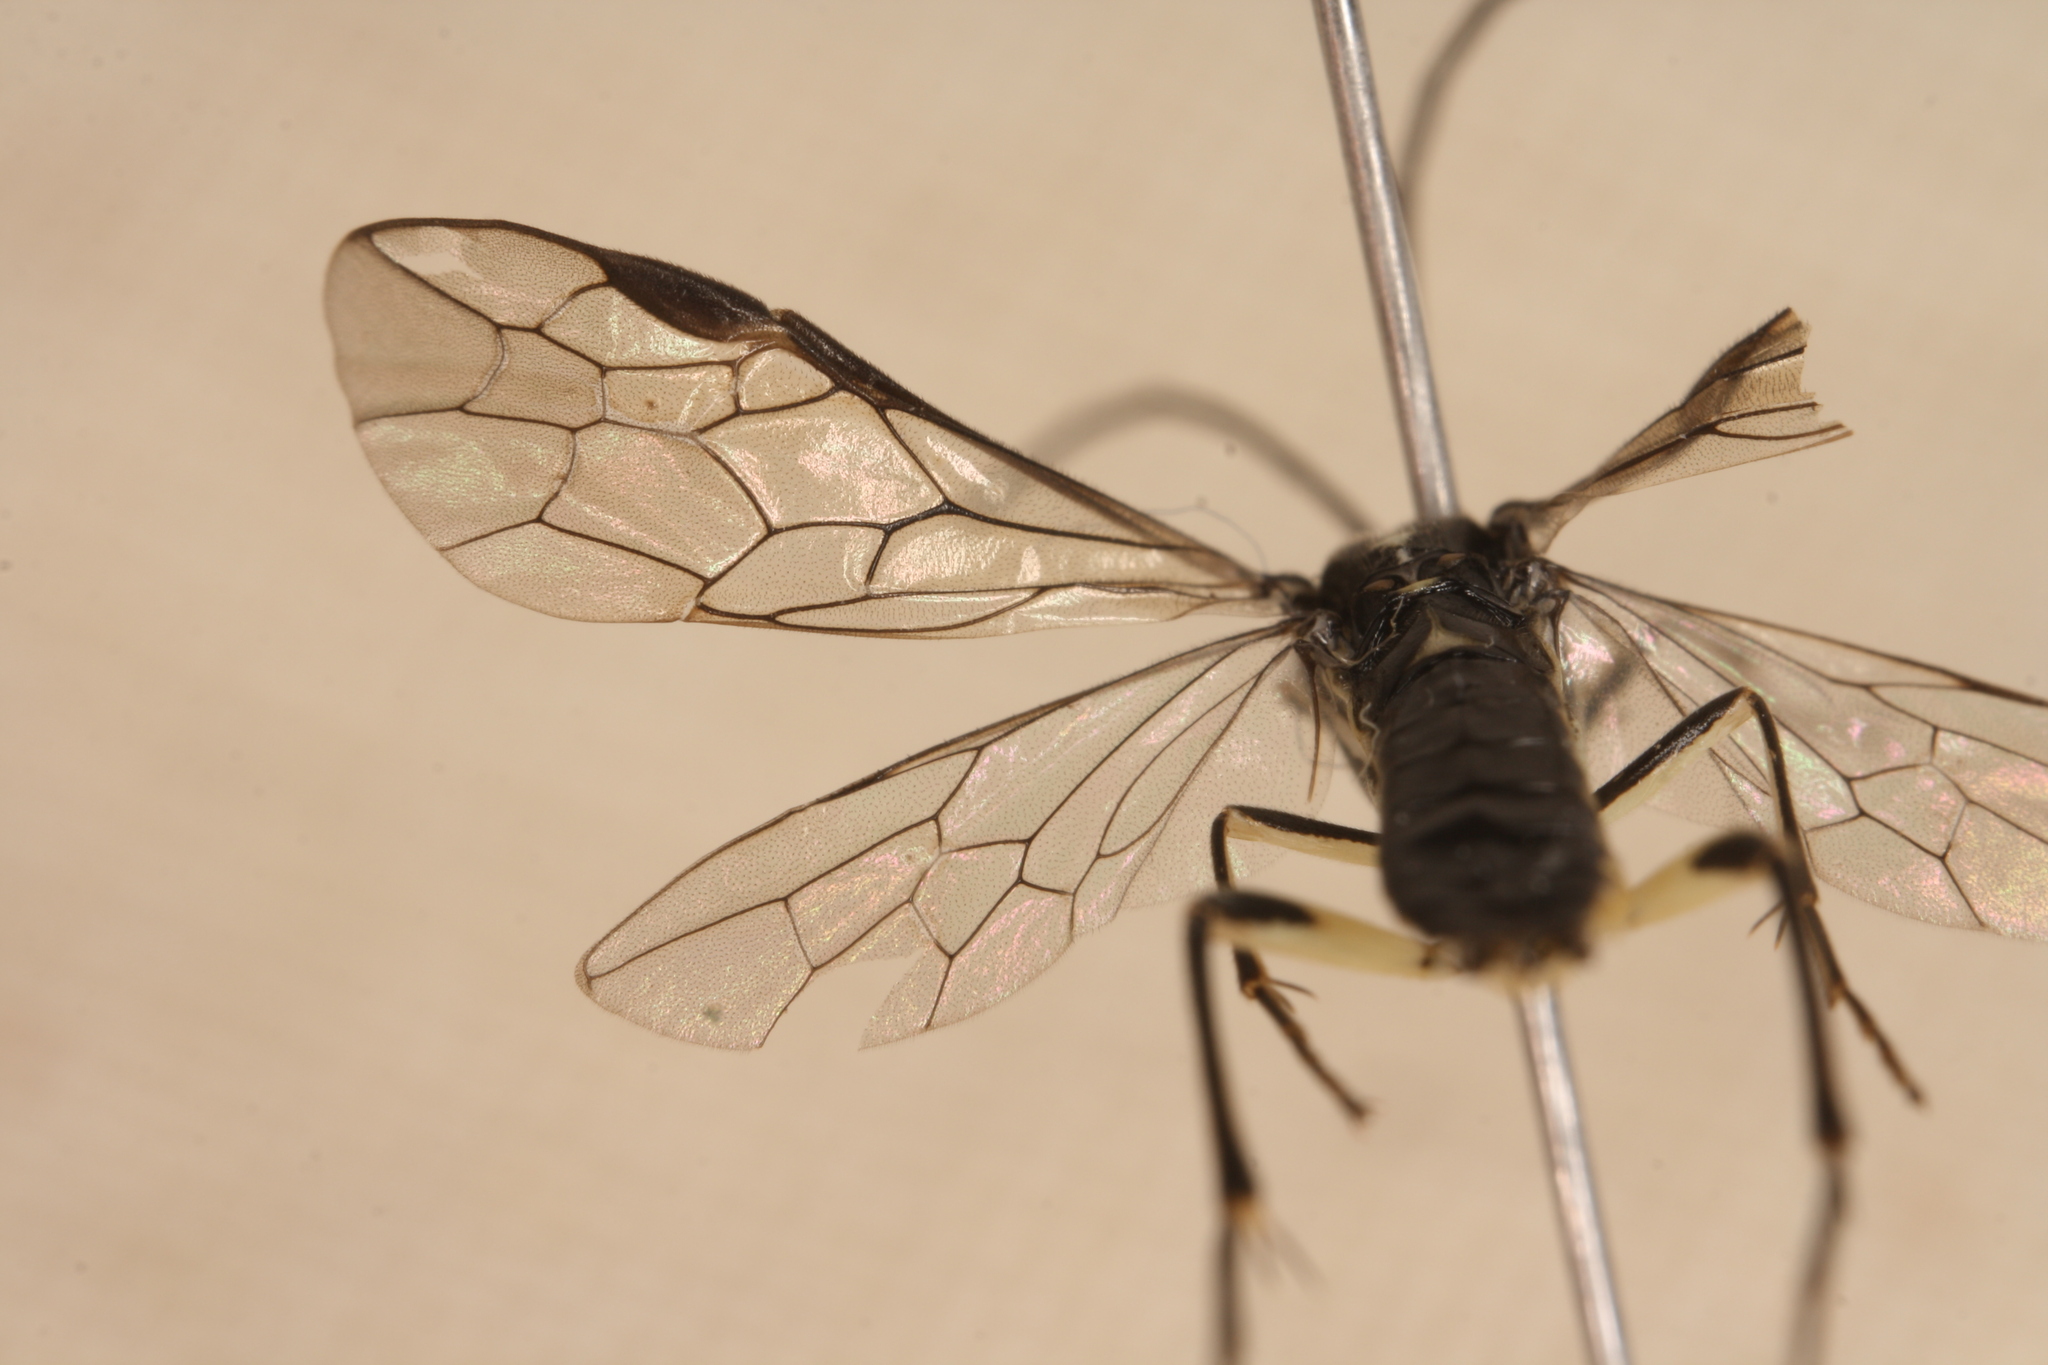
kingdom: Animalia
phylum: Arthropoda
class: Insecta
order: Hymenoptera
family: Tenthredinidae
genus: Pachyprotasis
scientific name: Pachyprotasis rapae
